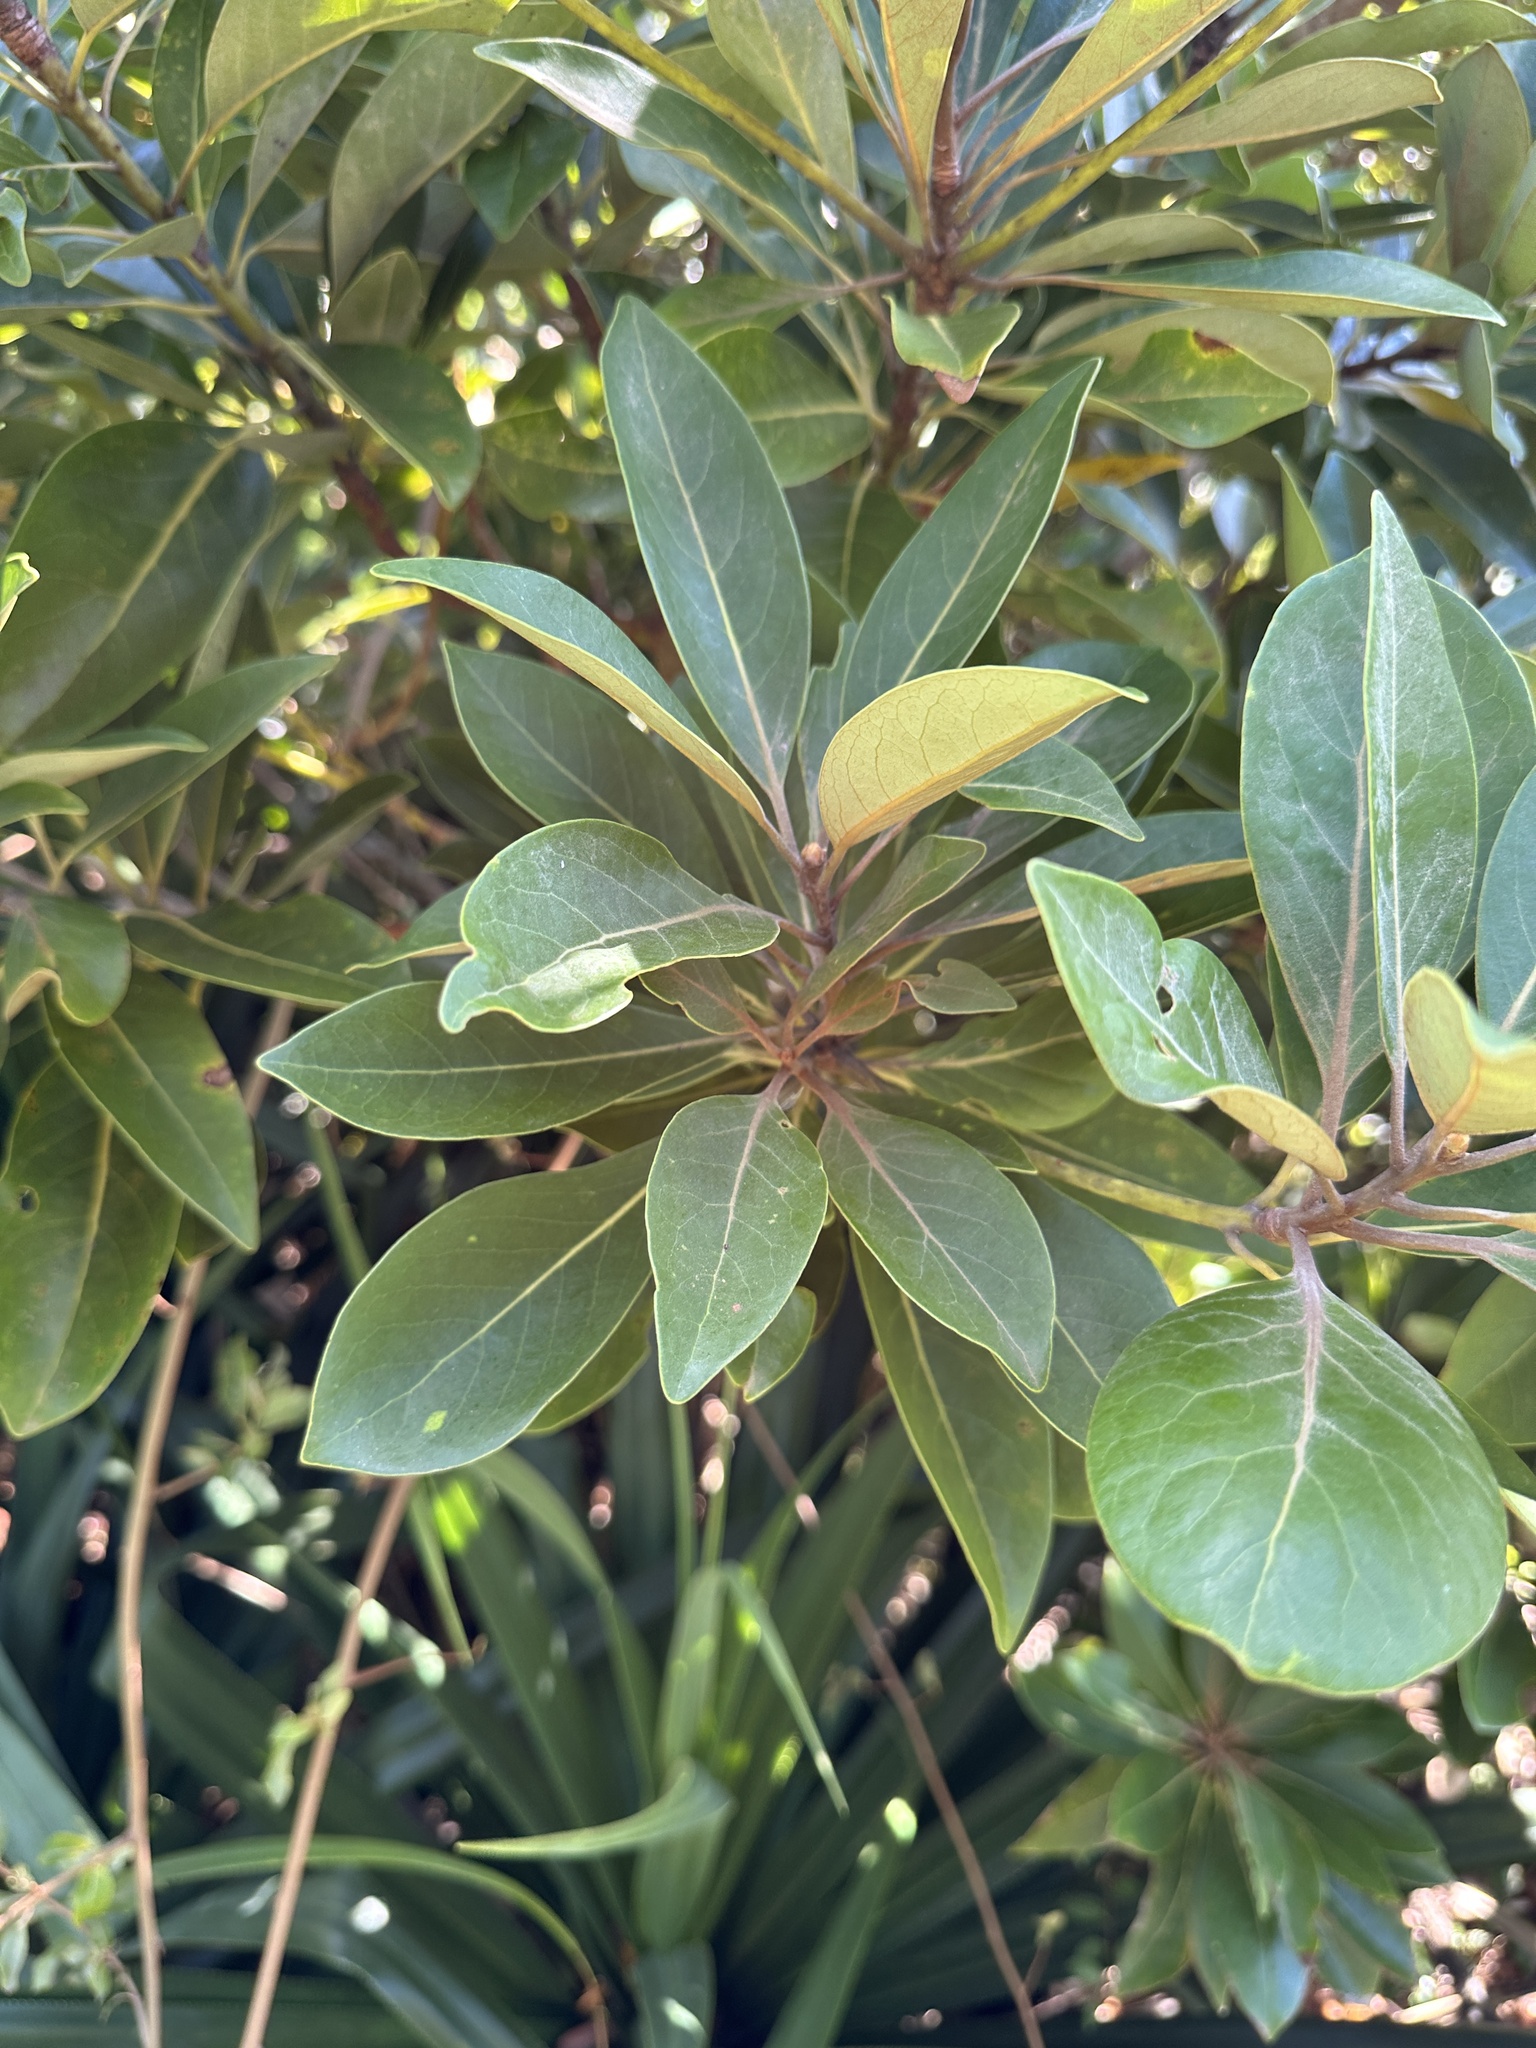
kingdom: Plantae
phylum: Tracheophyta
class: Magnoliopsida
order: Laurales
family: Lauraceae
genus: Machilus
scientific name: Machilus kobu
